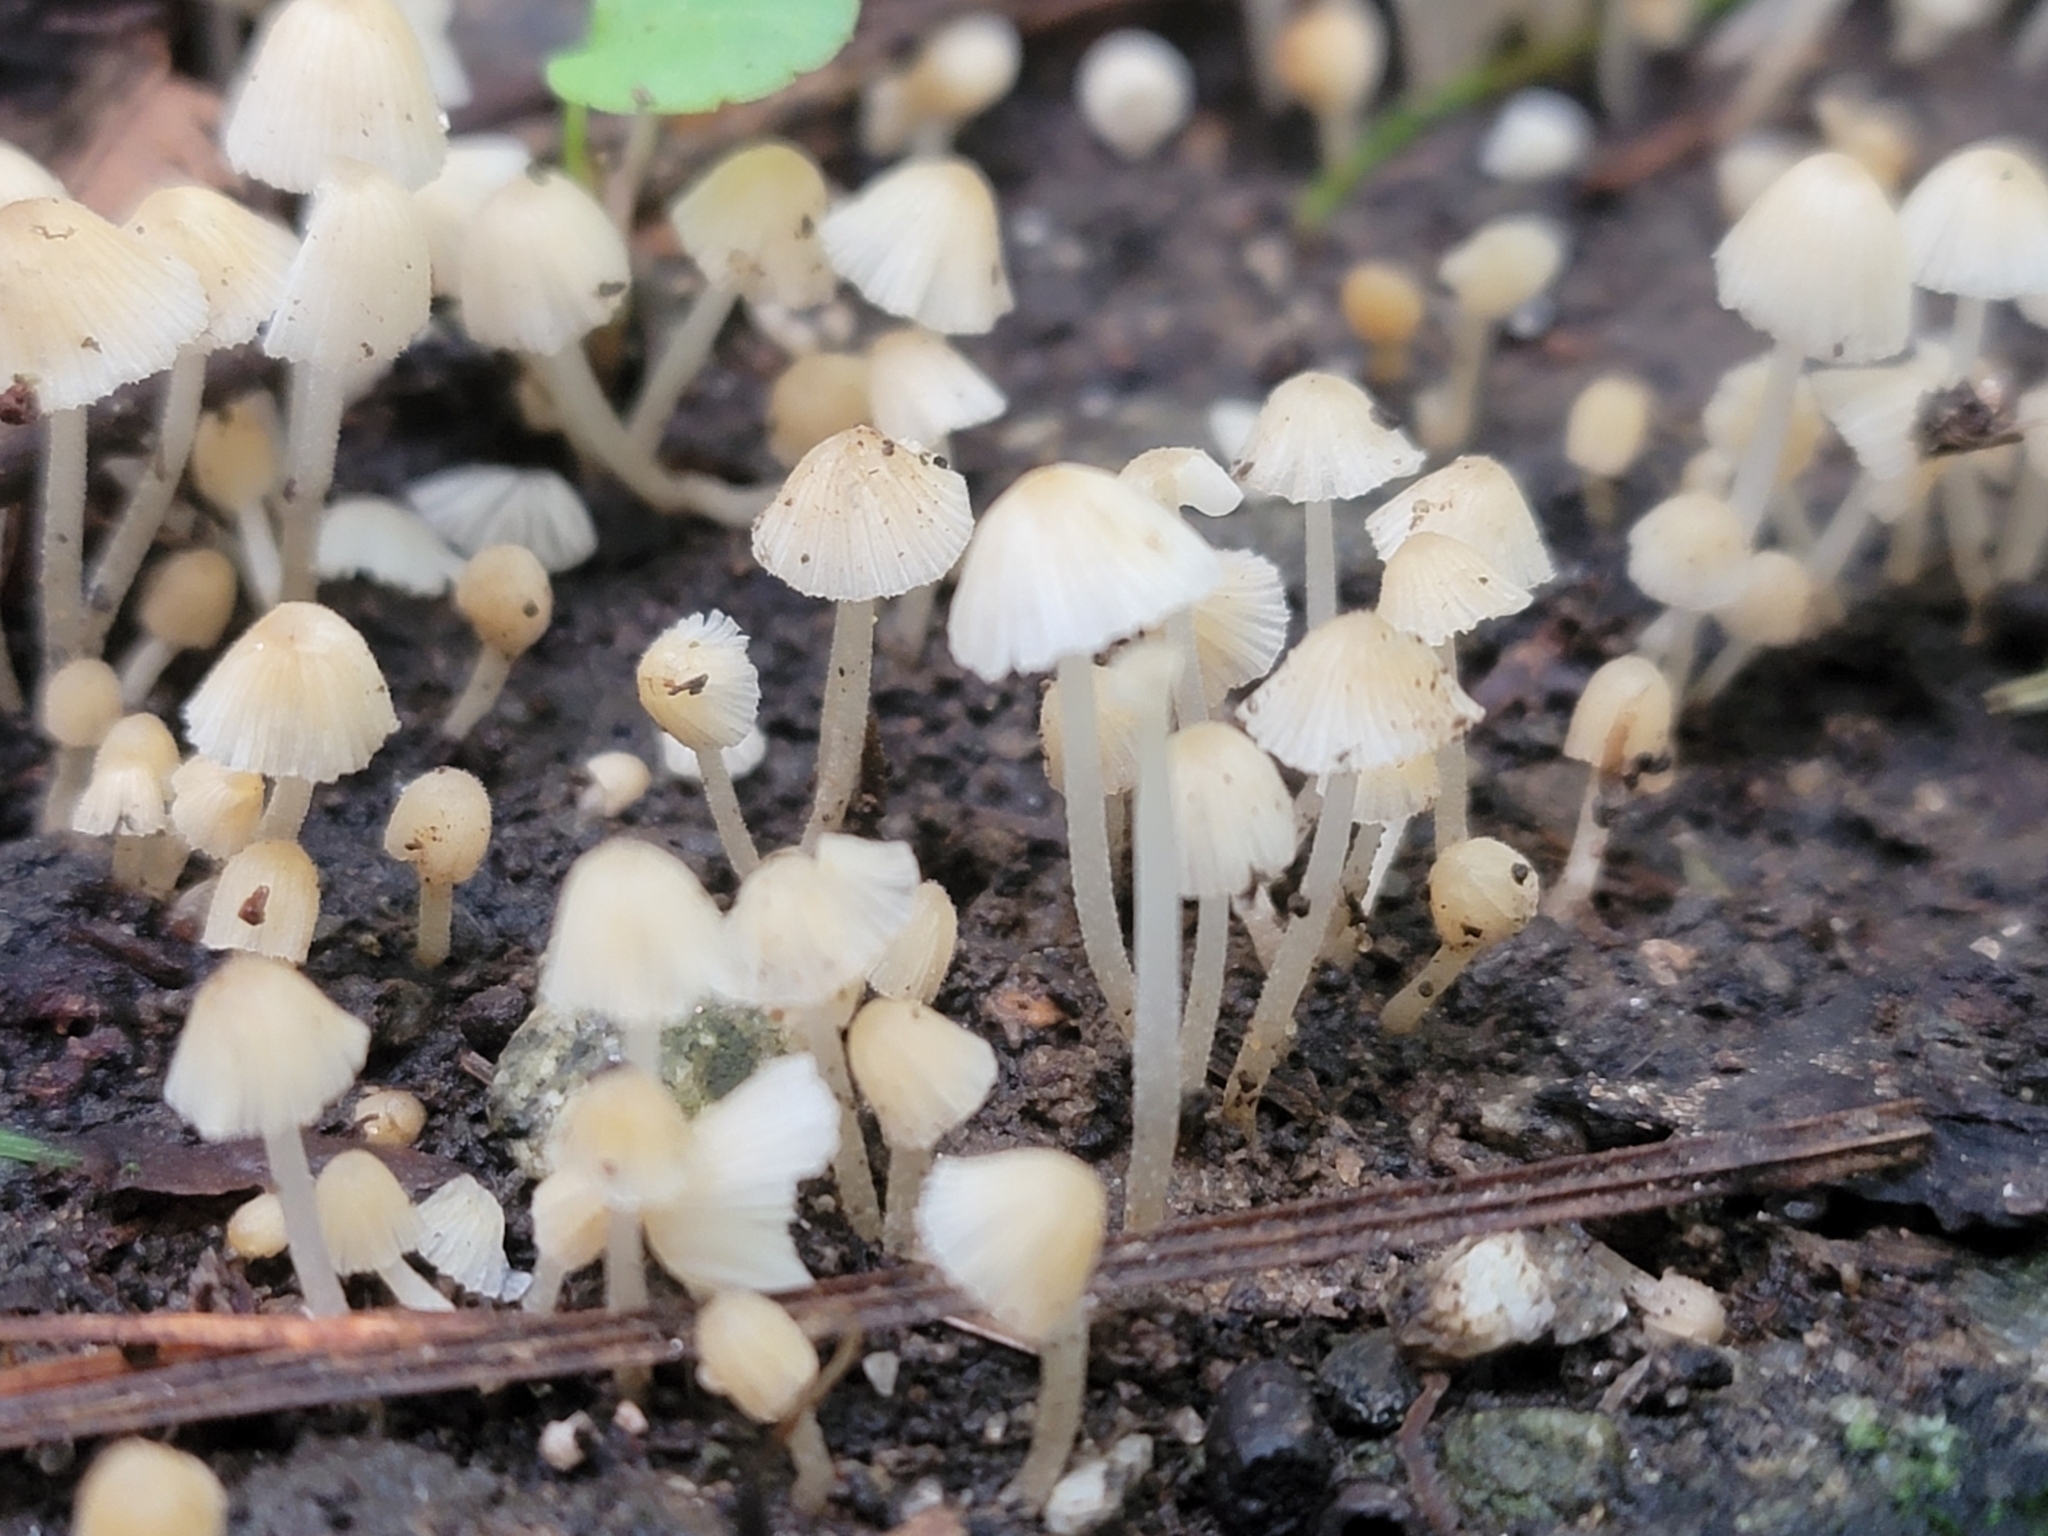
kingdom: Fungi
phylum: Basidiomycota
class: Agaricomycetes
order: Agaricales
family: Psathyrellaceae
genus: Coprinellus
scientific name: Coprinellus disseminatus
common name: Fairies' bonnets
